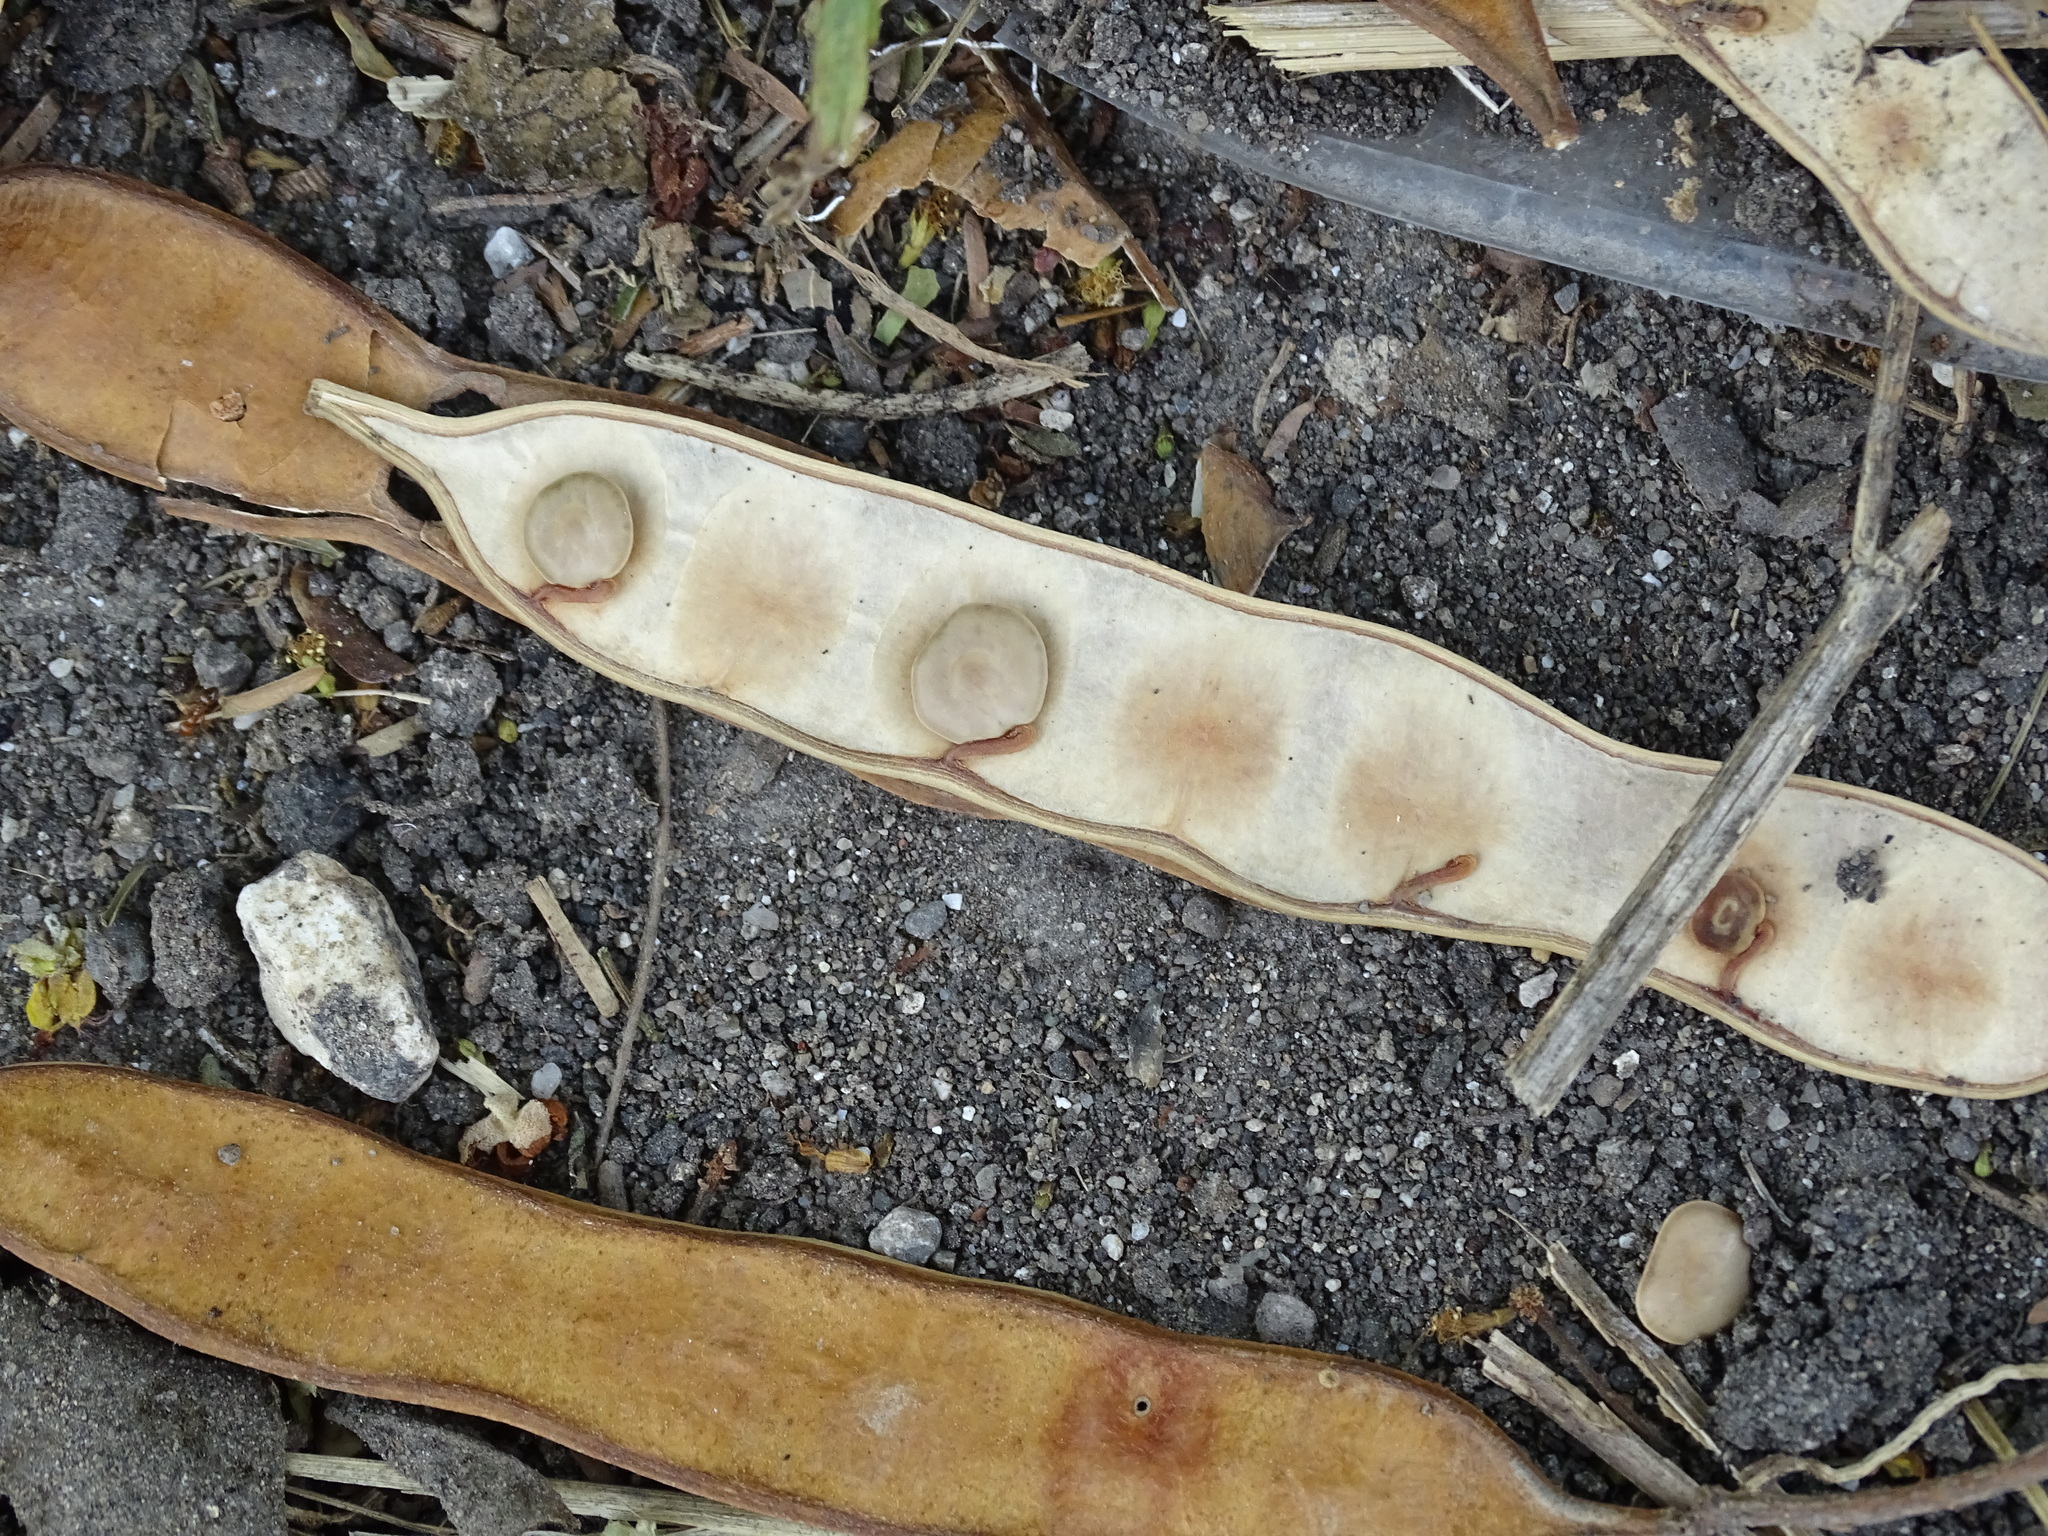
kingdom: Plantae
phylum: Tracheophyta
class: Magnoliopsida
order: Fabales
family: Fabaceae
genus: Senegalia
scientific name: Senegalia picachensis
